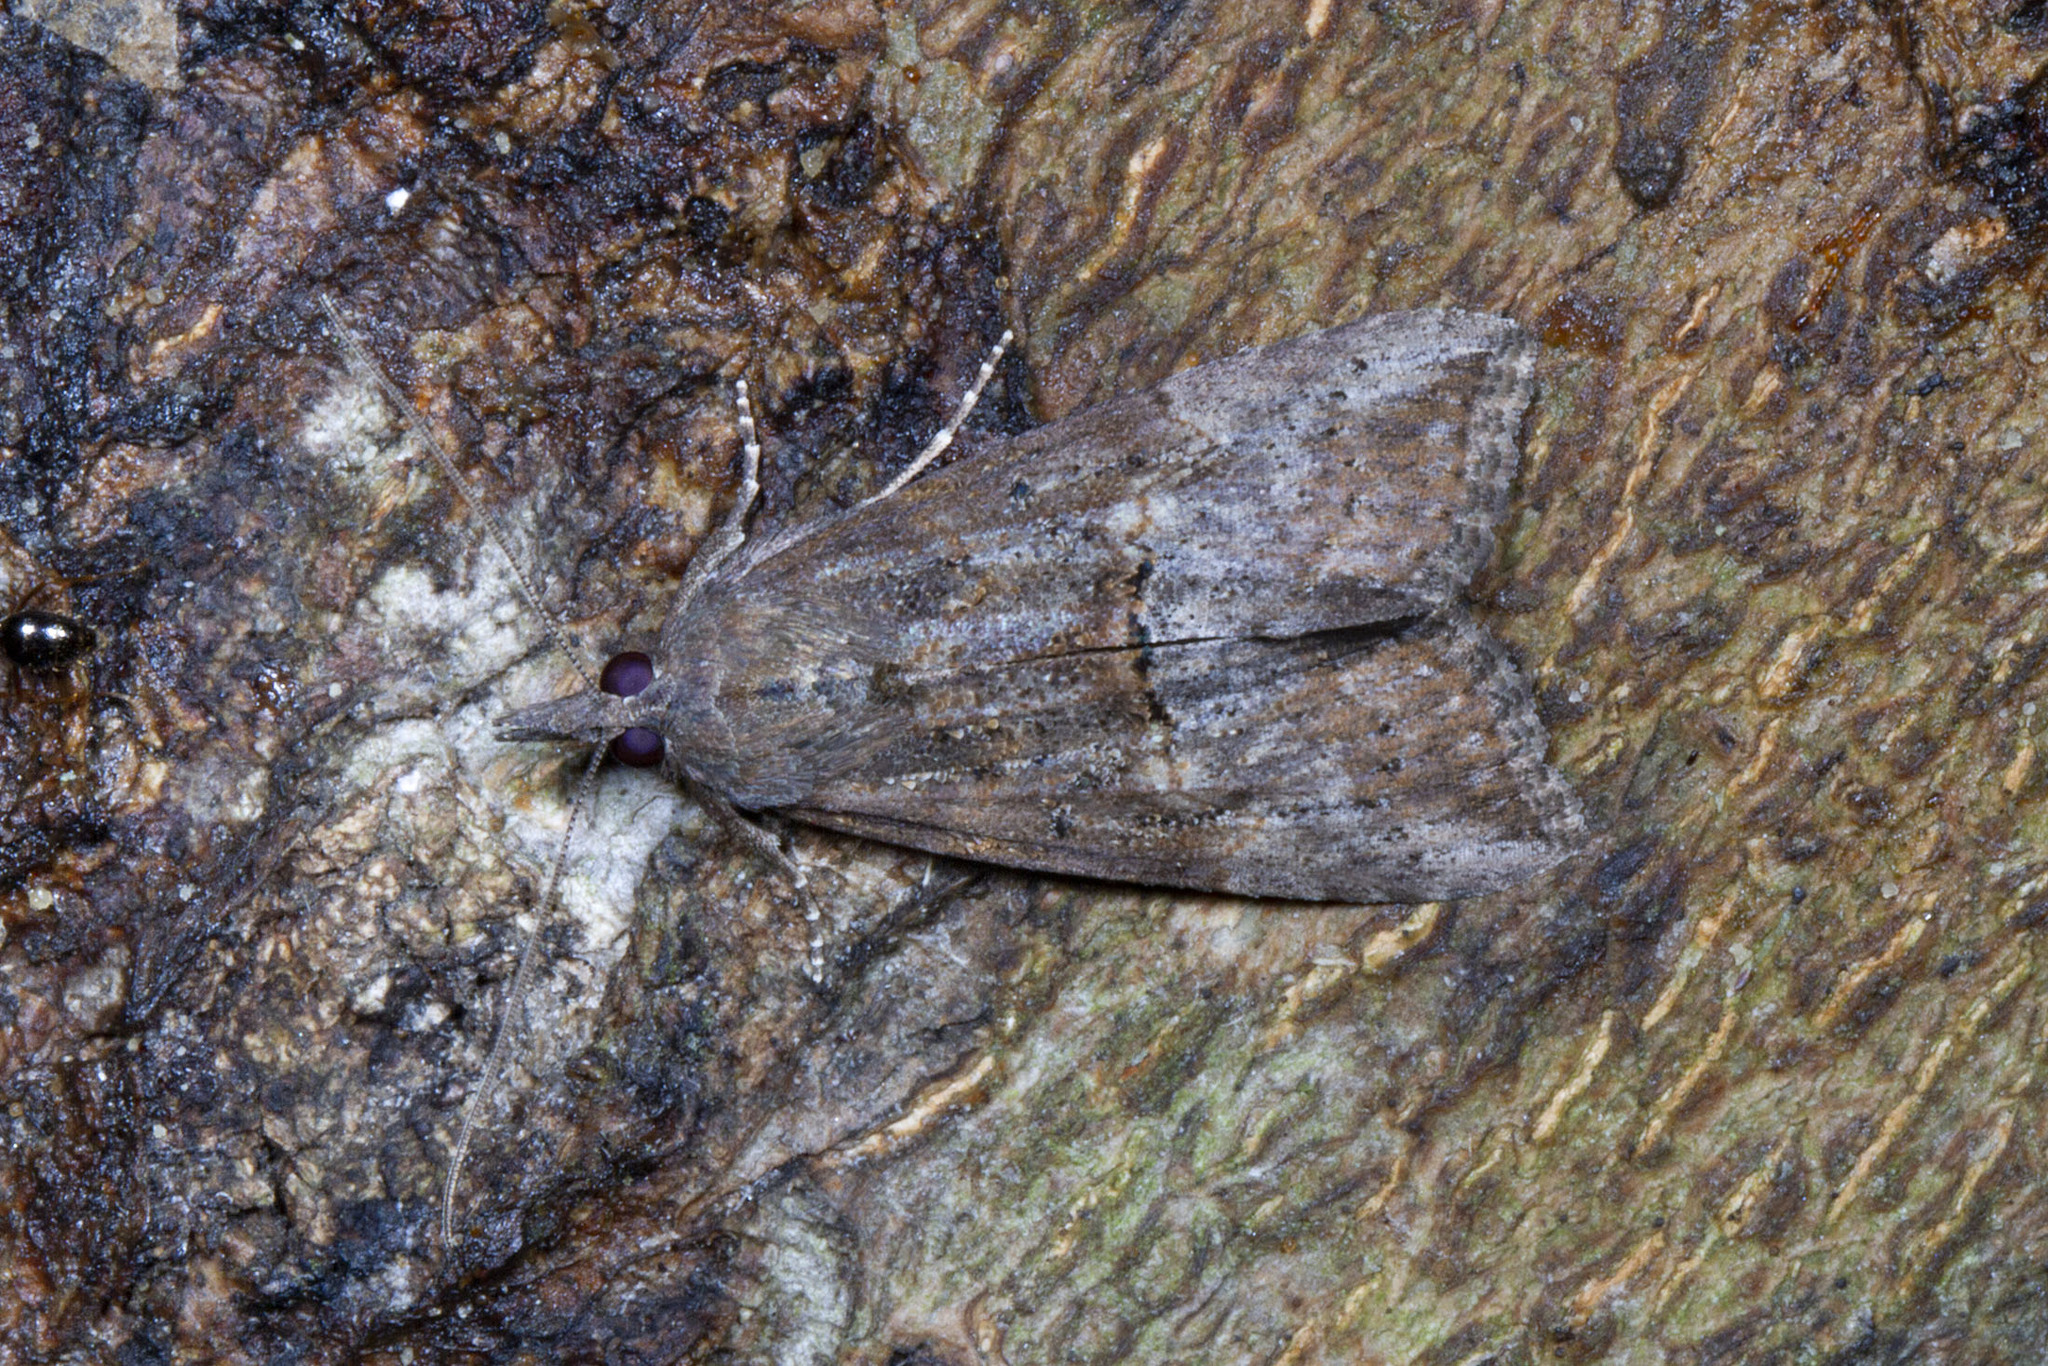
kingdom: Animalia
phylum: Arthropoda
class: Insecta
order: Lepidoptera
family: Erebidae
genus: Hypena
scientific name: Hypena scabra
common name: Green cloverworm
